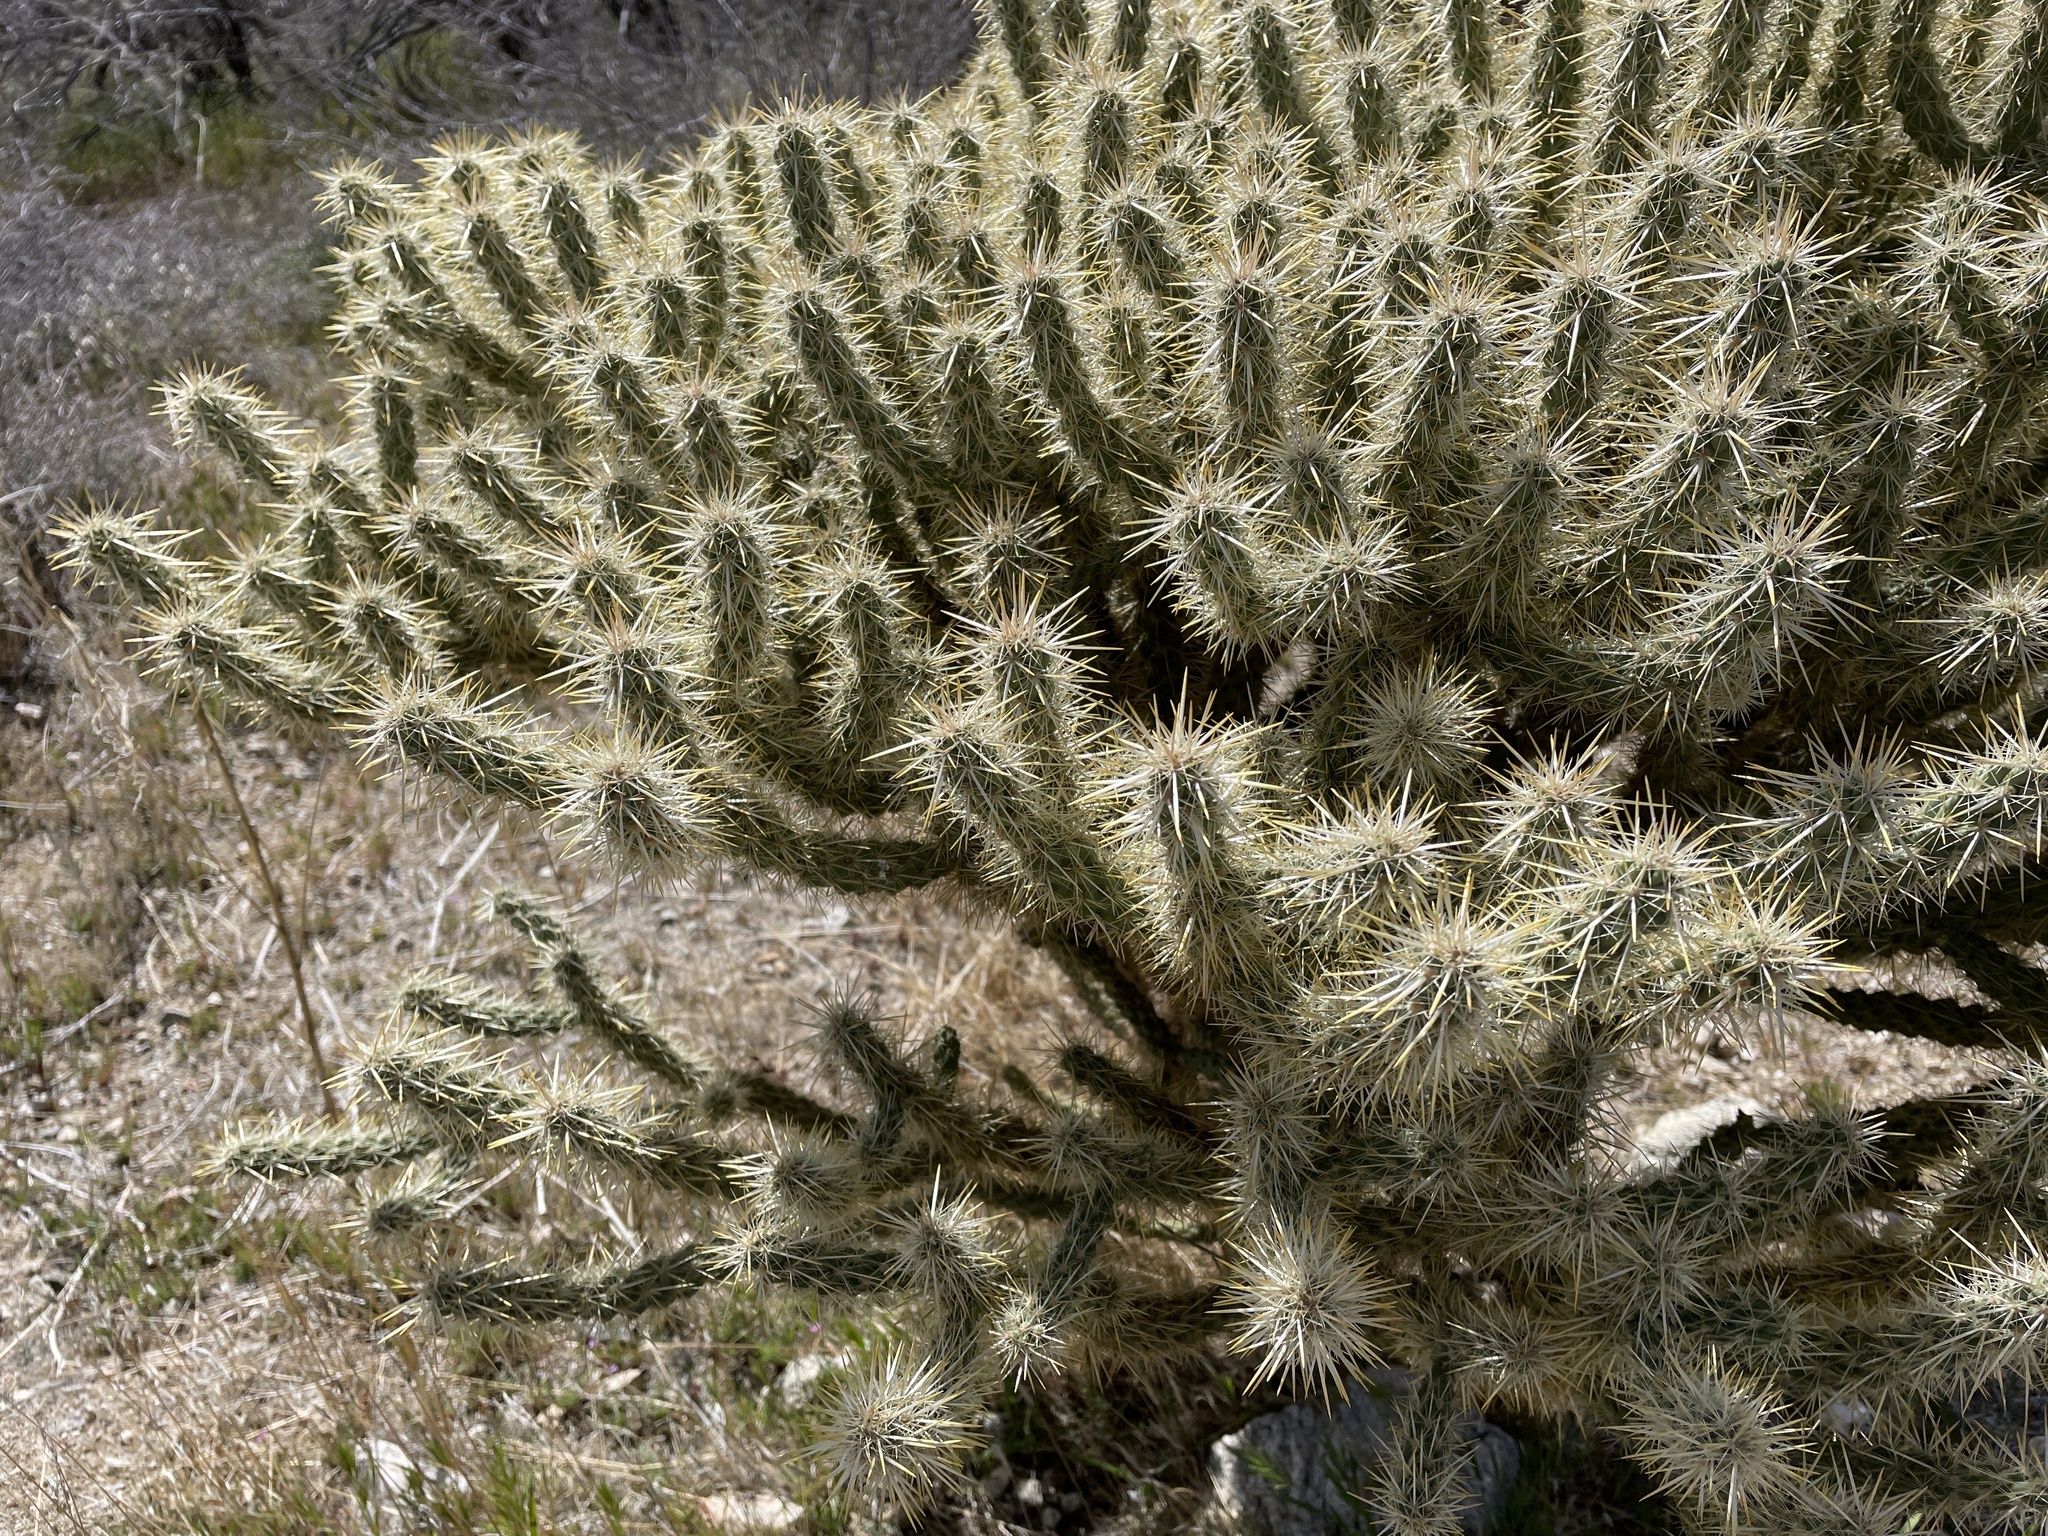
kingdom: Plantae
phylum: Tracheophyta
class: Magnoliopsida
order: Caryophyllales
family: Cactaceae
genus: Cylindropuntia
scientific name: Cylindropuntia echinocarpa
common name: Ground cholla
